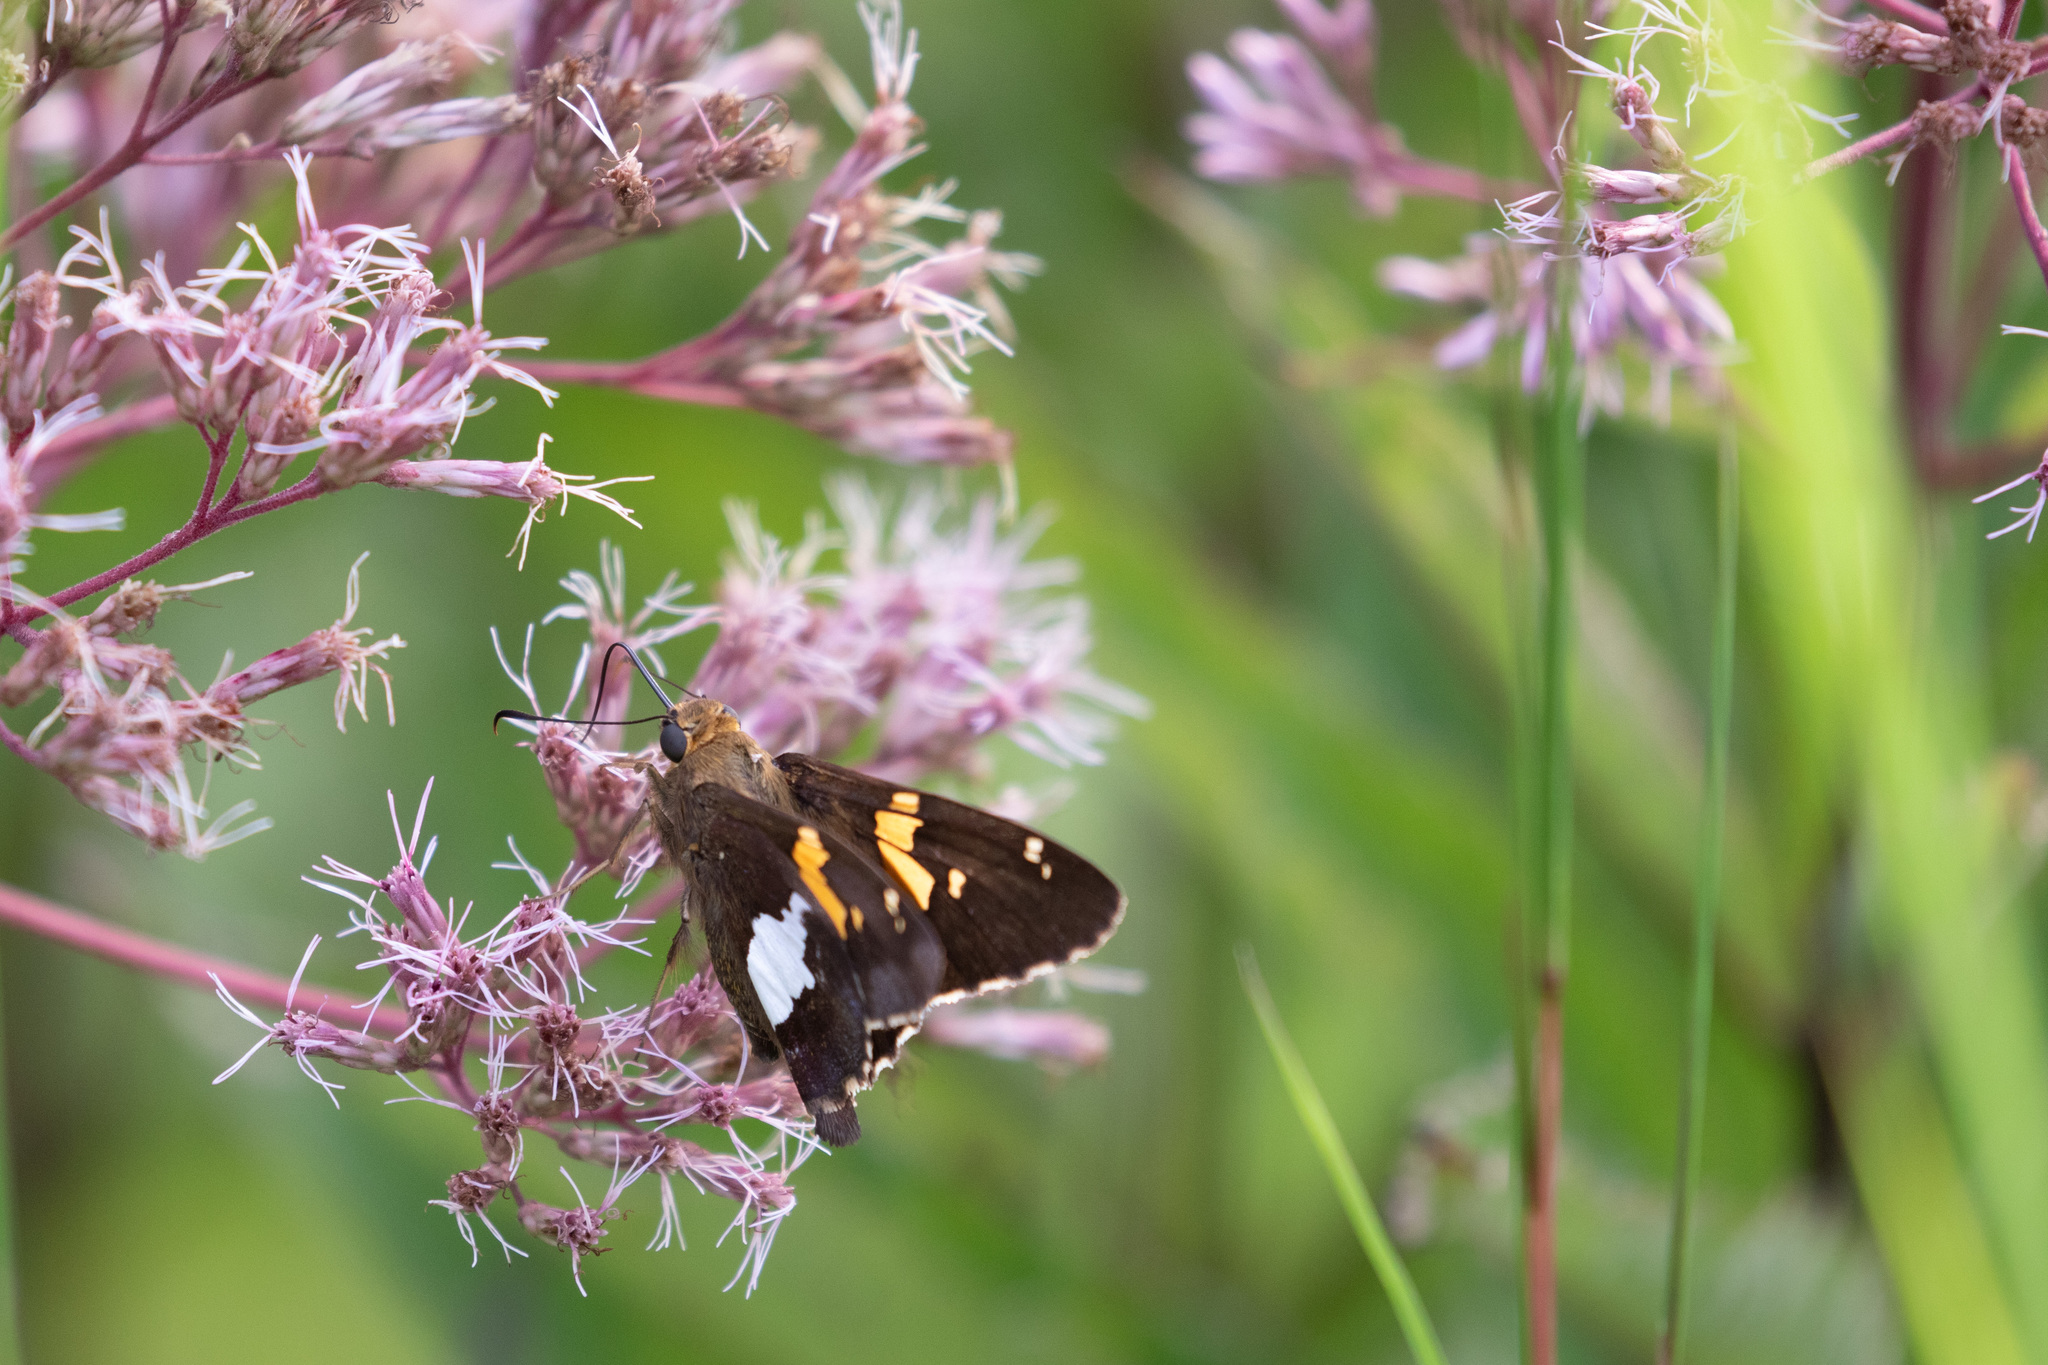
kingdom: Animalia
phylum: Arthropoda
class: Insecta
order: Lepidoptera
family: Hesperiidae
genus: Epargyreus
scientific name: Epargyreus clarus
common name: Silver-spotted skipper
